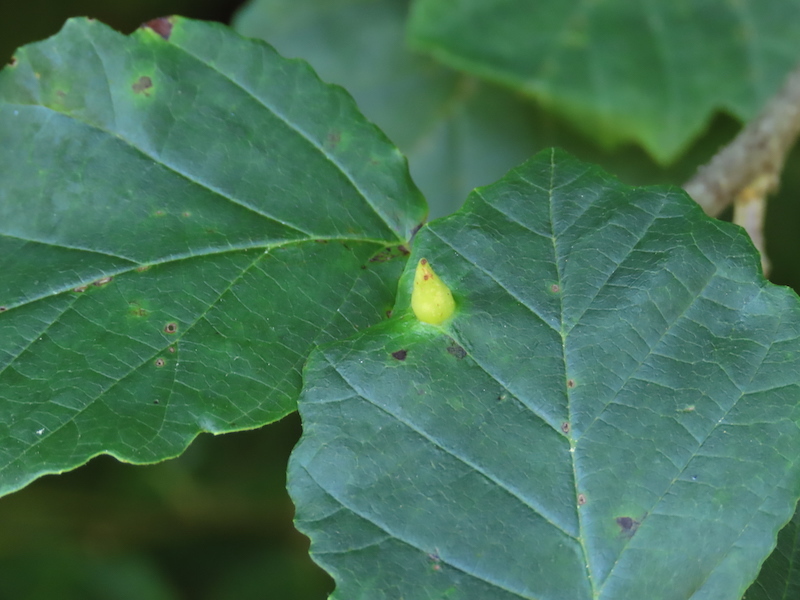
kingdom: Animalia
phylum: Arthropoda
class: Insecta
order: Hemiptera
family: Aphididae
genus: Hormaphis
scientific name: Hormaphis hamamelidis
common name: Witch-hazel cone gall aphid
